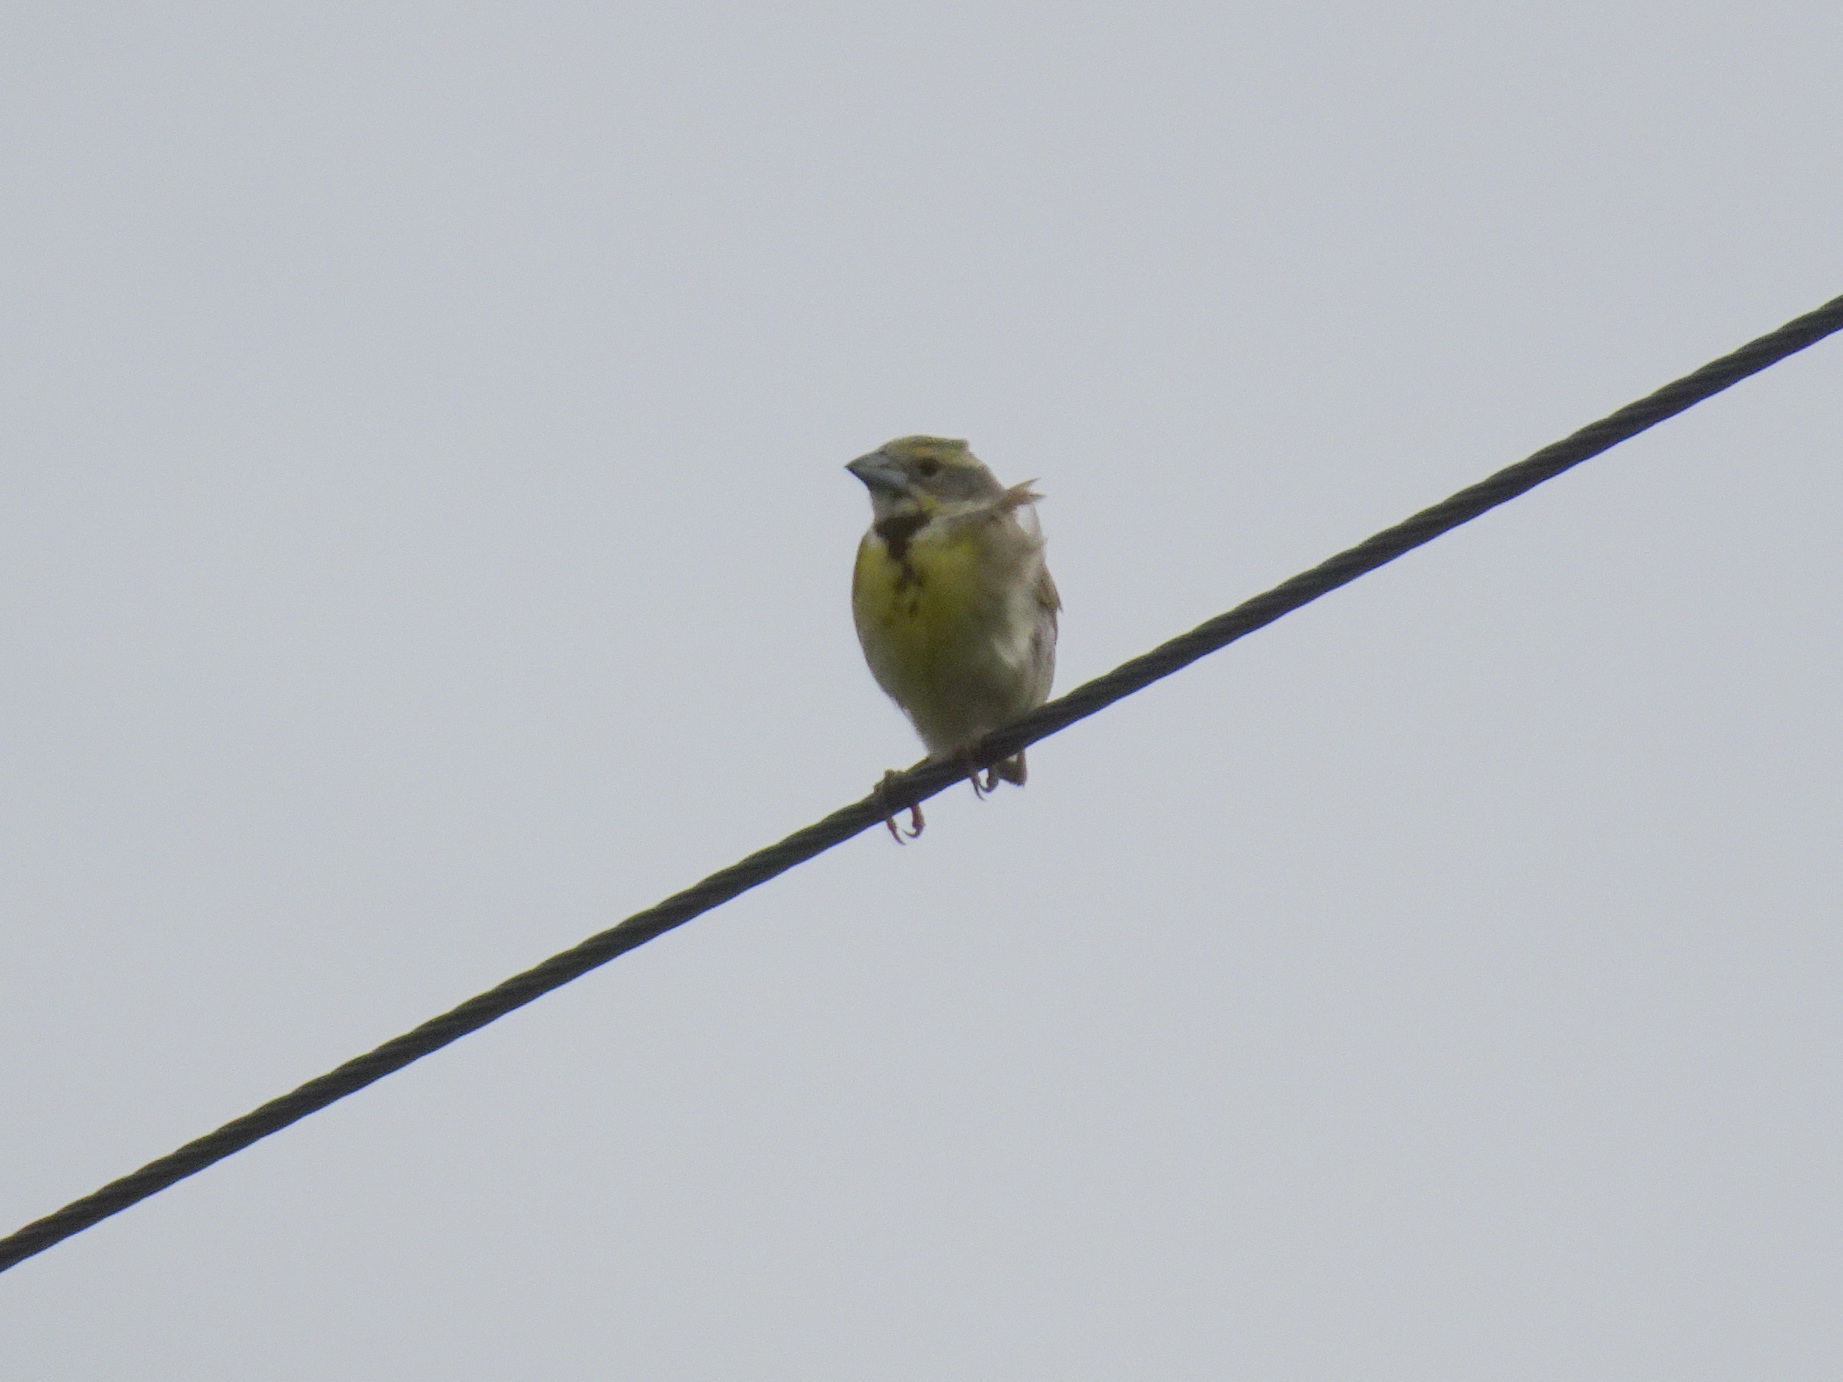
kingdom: Animalia
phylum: Chordata
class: Aves
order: Passeriformes
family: Cardinalidae
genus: Spiza
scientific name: Spiza americana
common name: Dickcissel
